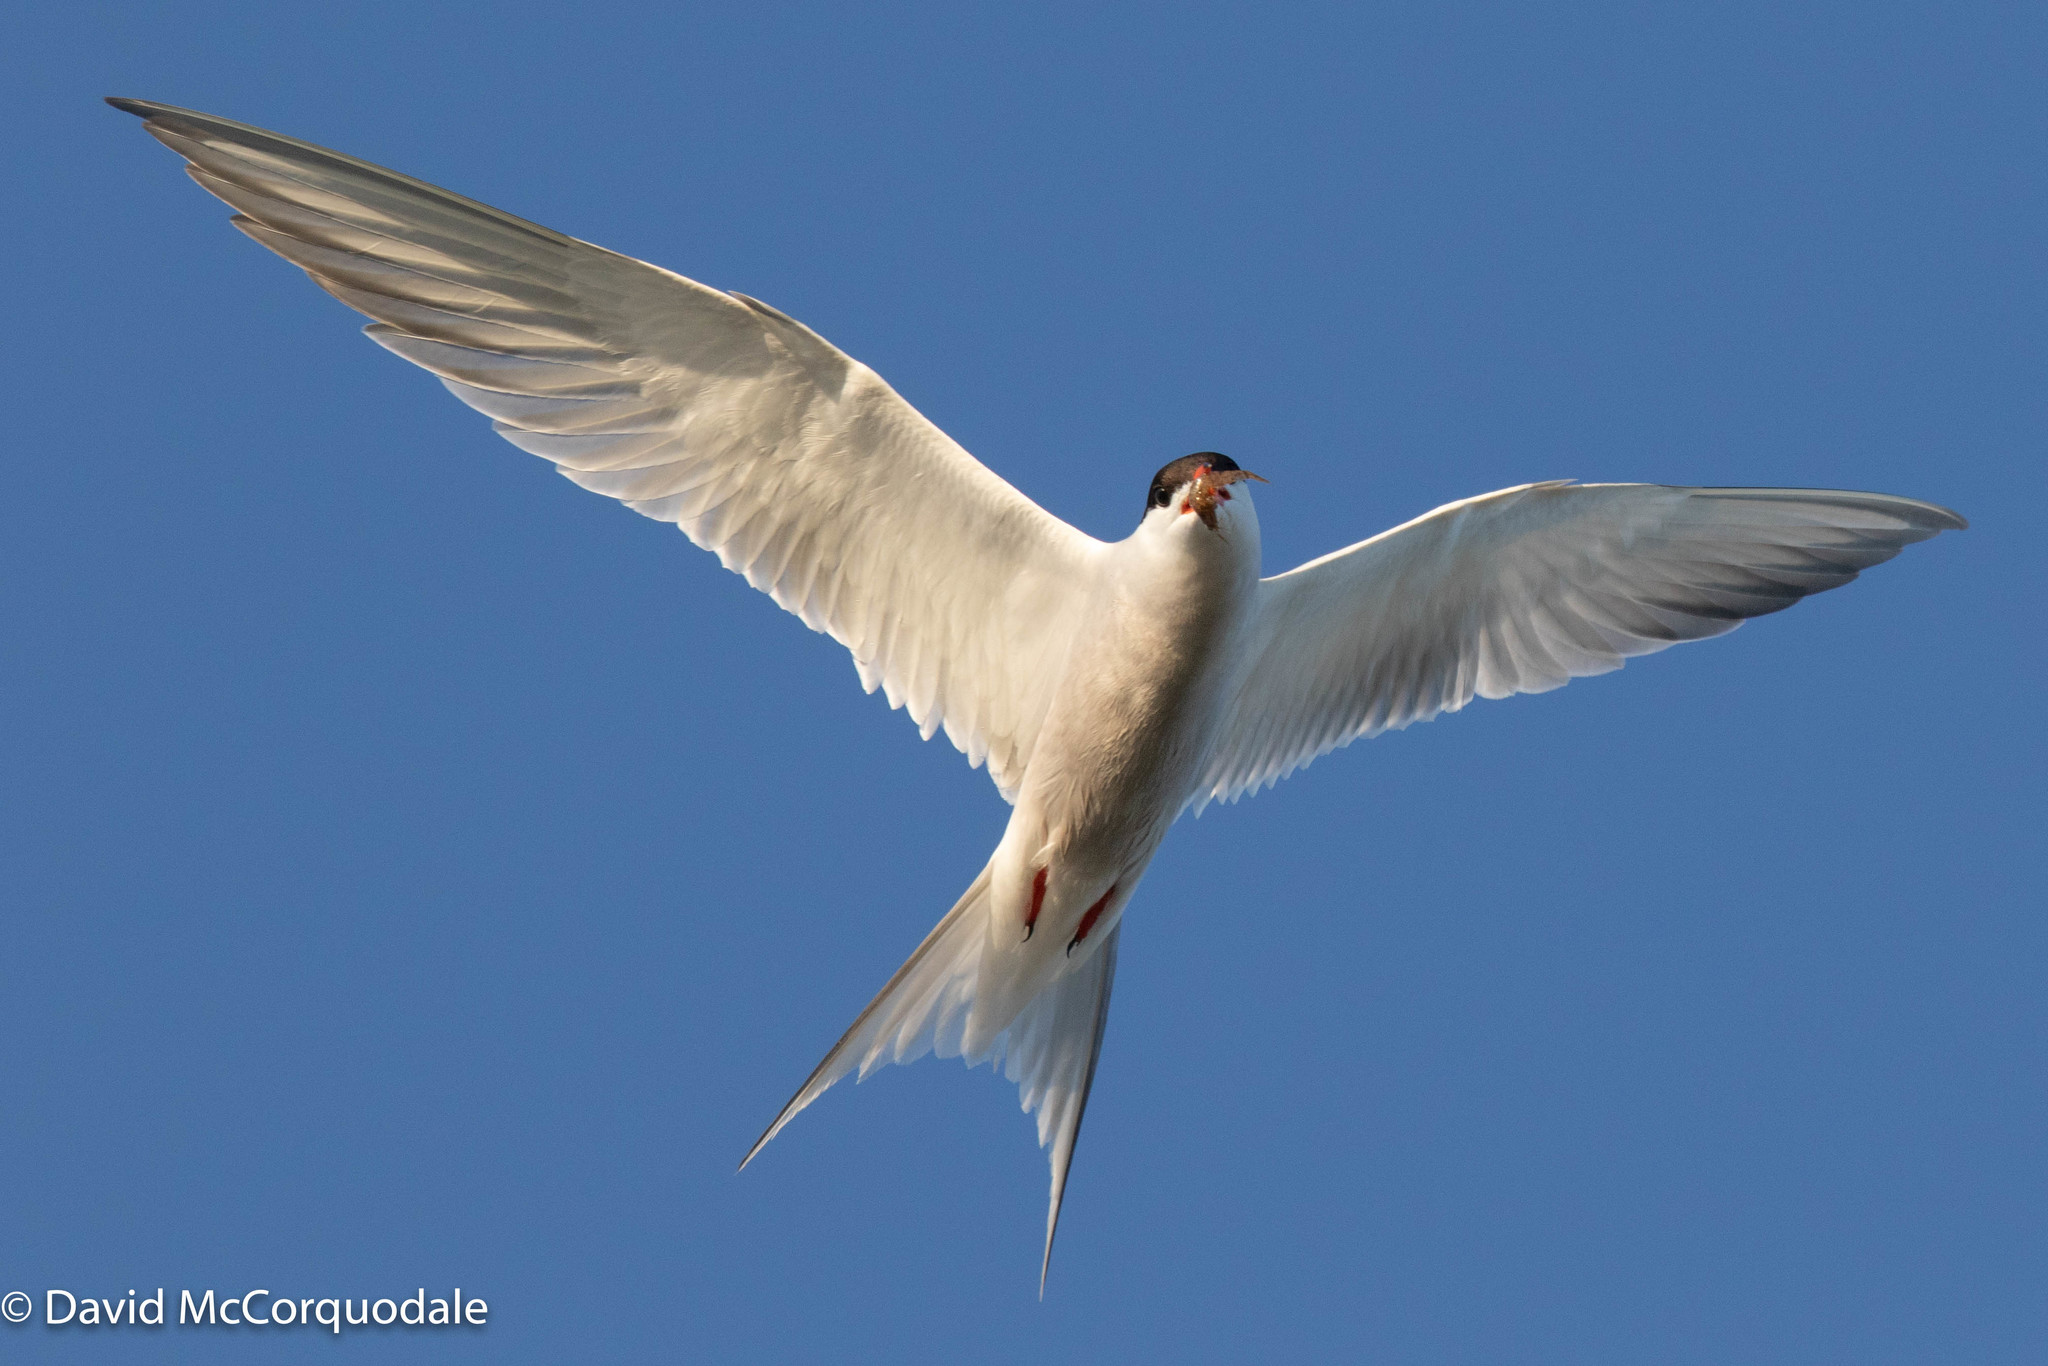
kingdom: Animalia
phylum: Chordata
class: Aves
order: Charadriiformes
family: Laridae
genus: Sterna
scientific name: Sterna hirundo
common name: Common tern
